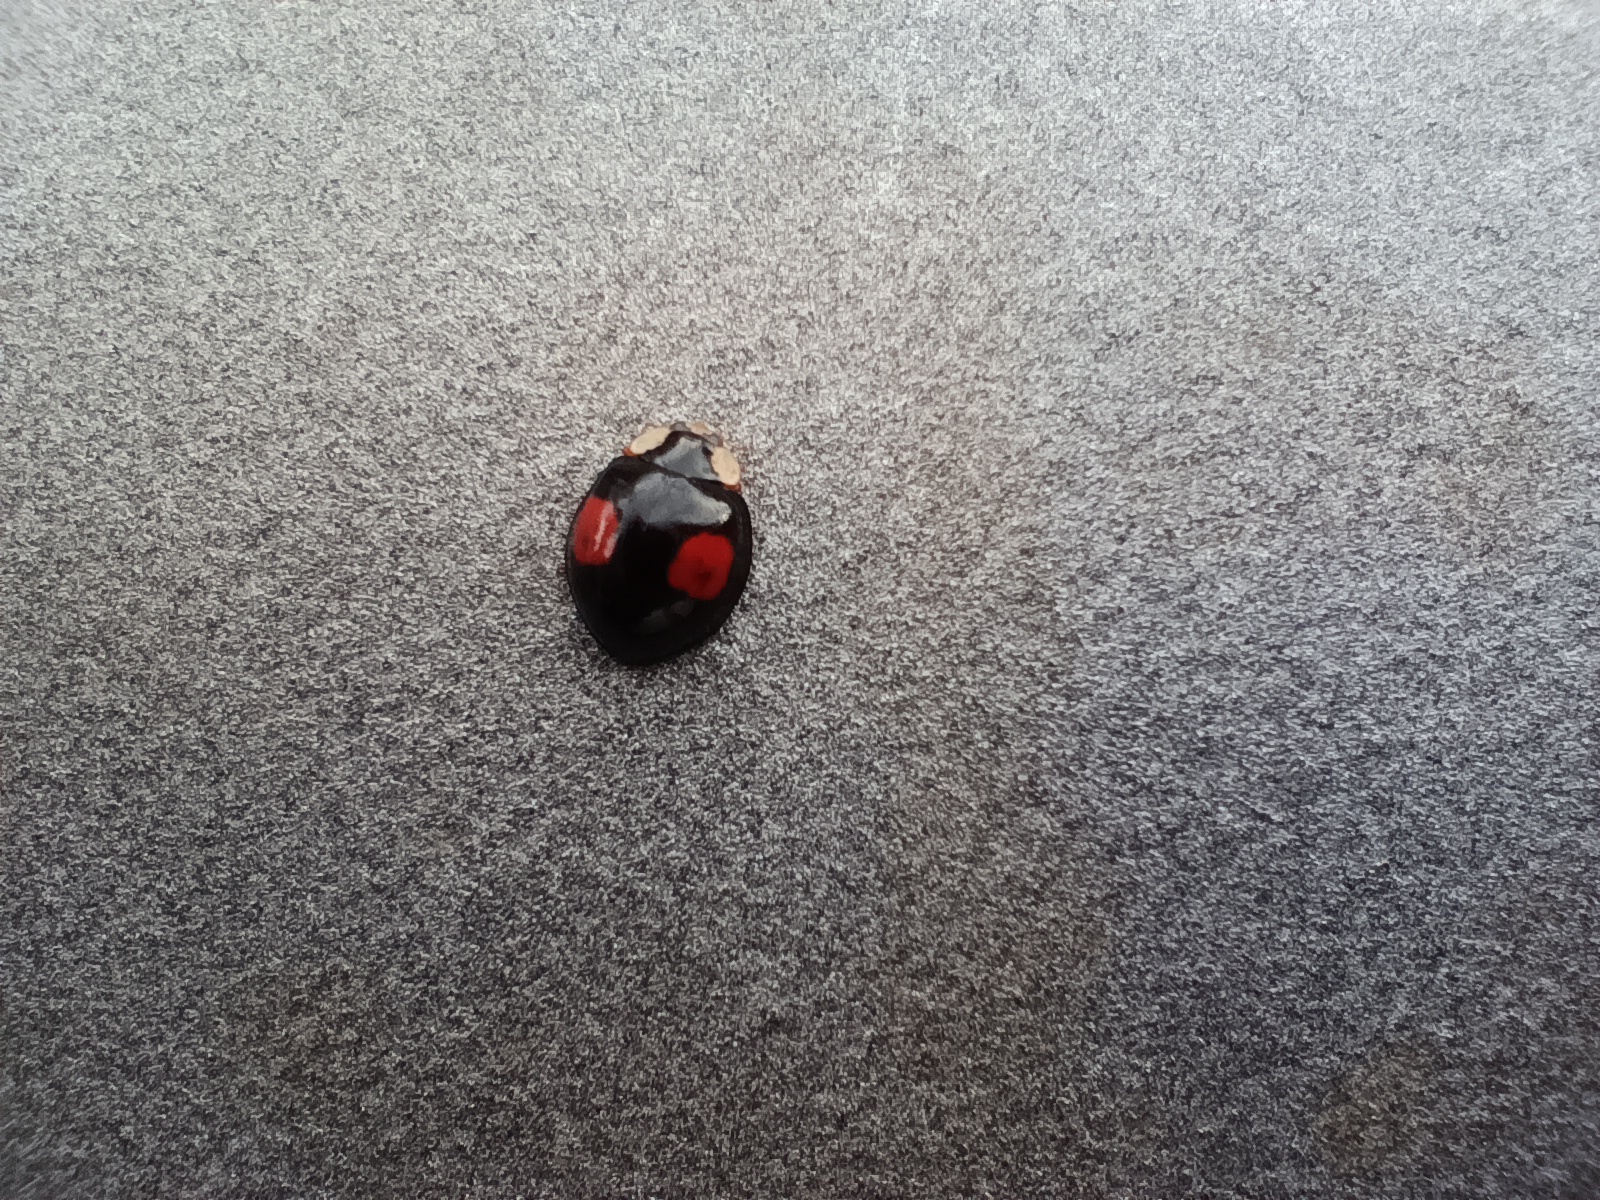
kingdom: Animalia
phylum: Arthropoda
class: Insecta
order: Coleoptera
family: Coccinellidae
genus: Harmonia
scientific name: Harmonia axyridis
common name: Harlequin ladybird
